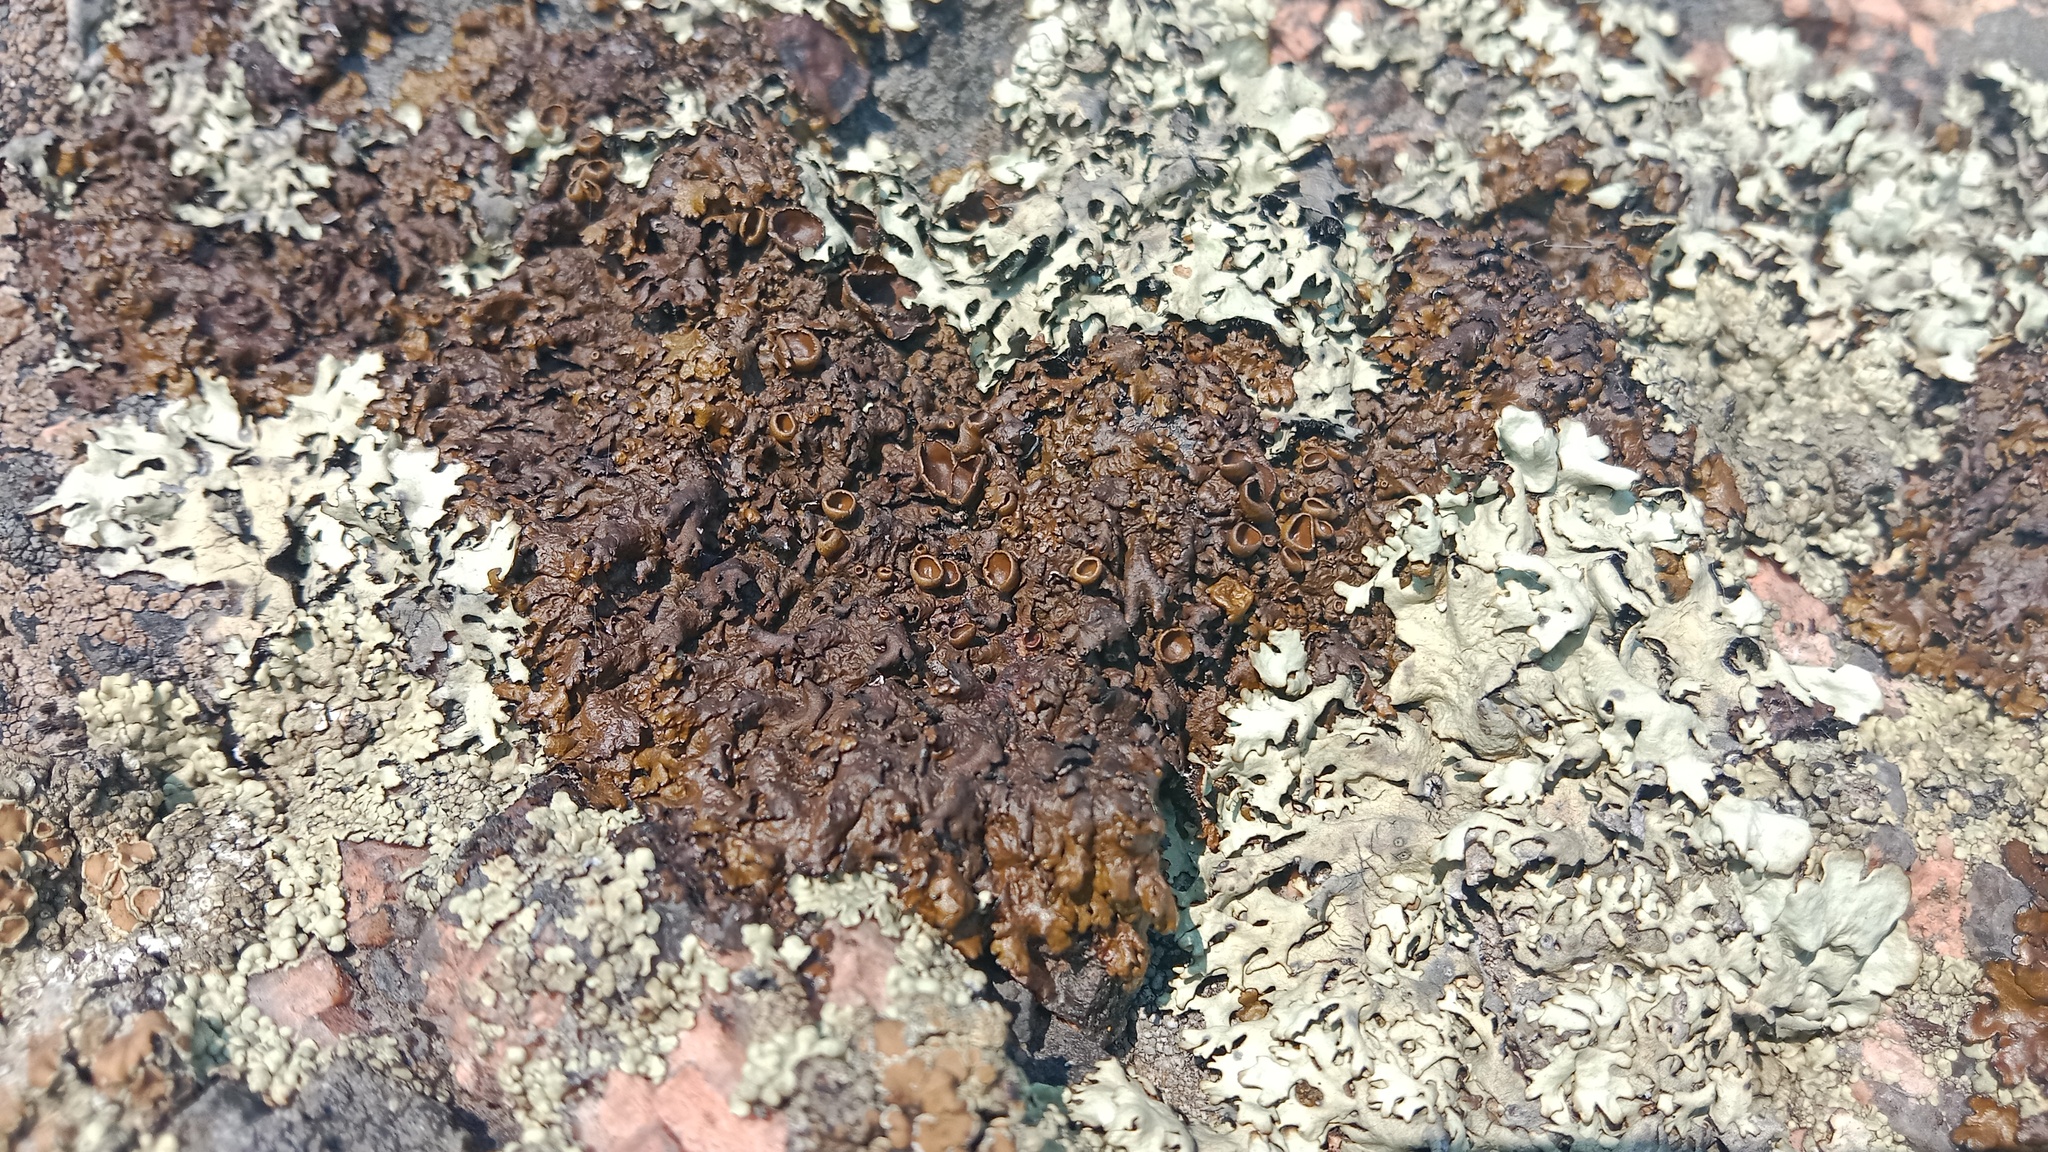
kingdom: Fungi
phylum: Ascomycota
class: Lecanoromycetes
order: Lecanorales
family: Parmeliaceae
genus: Xanthoparmelia
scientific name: Xanthoparmelia stenophylla
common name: Shingled rock shield
